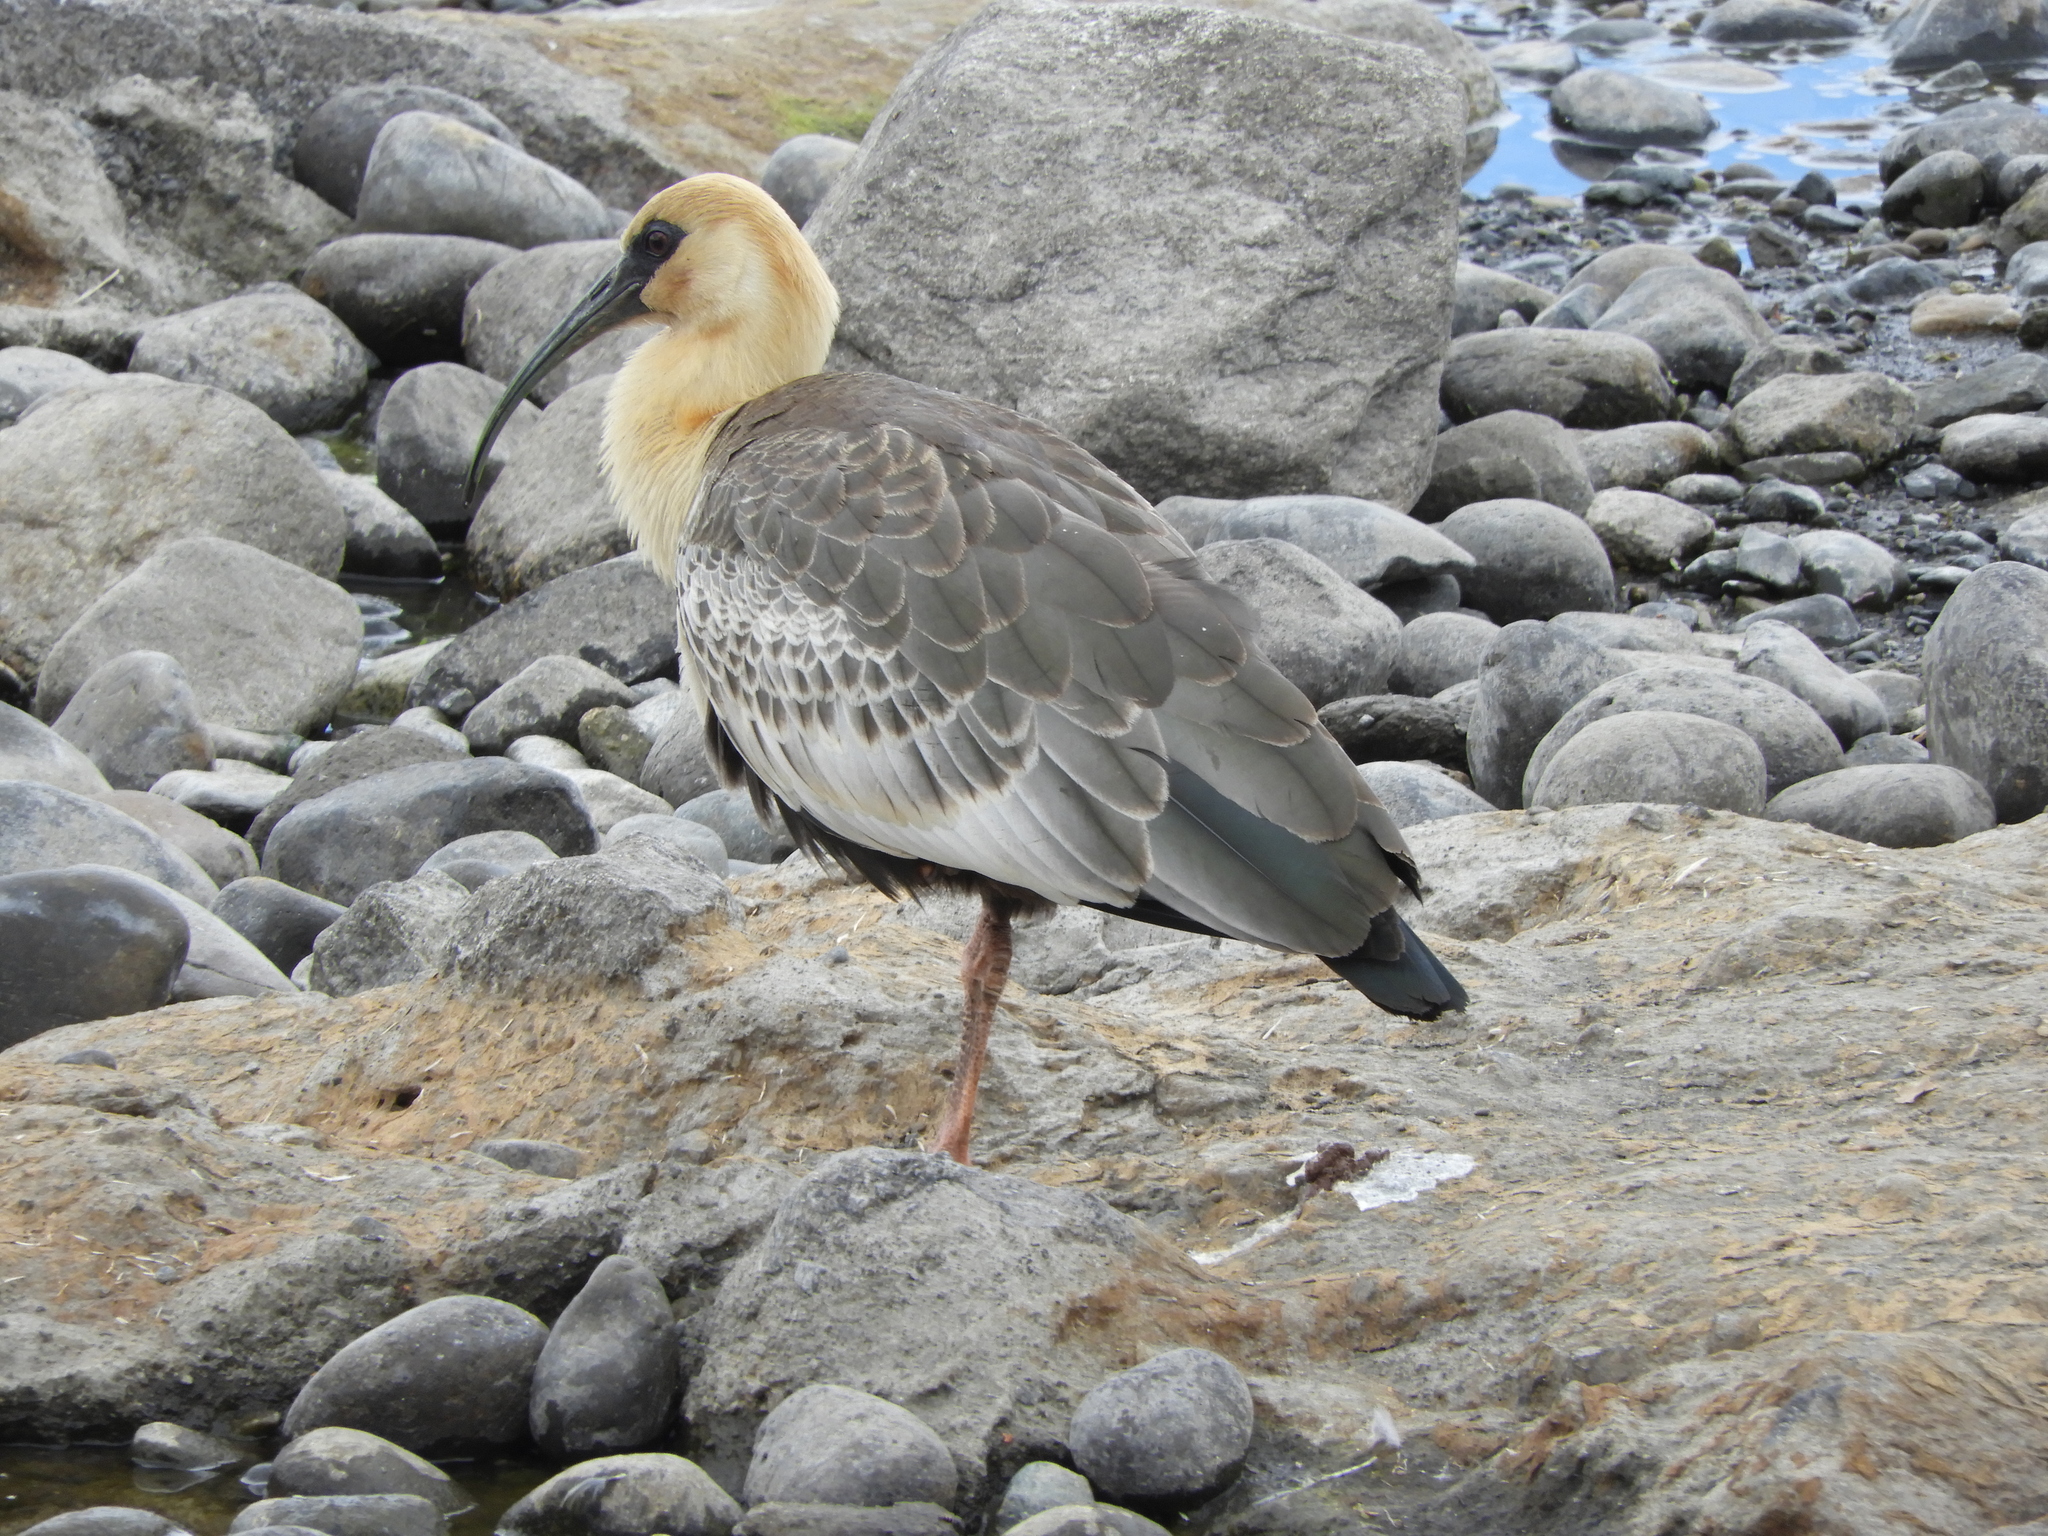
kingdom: Animalia
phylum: Chordata
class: Aves
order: Pelecaniformes
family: Threskiornithidae
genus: Theristicus
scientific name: Theristicus melanopis
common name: Black-faced ibis
